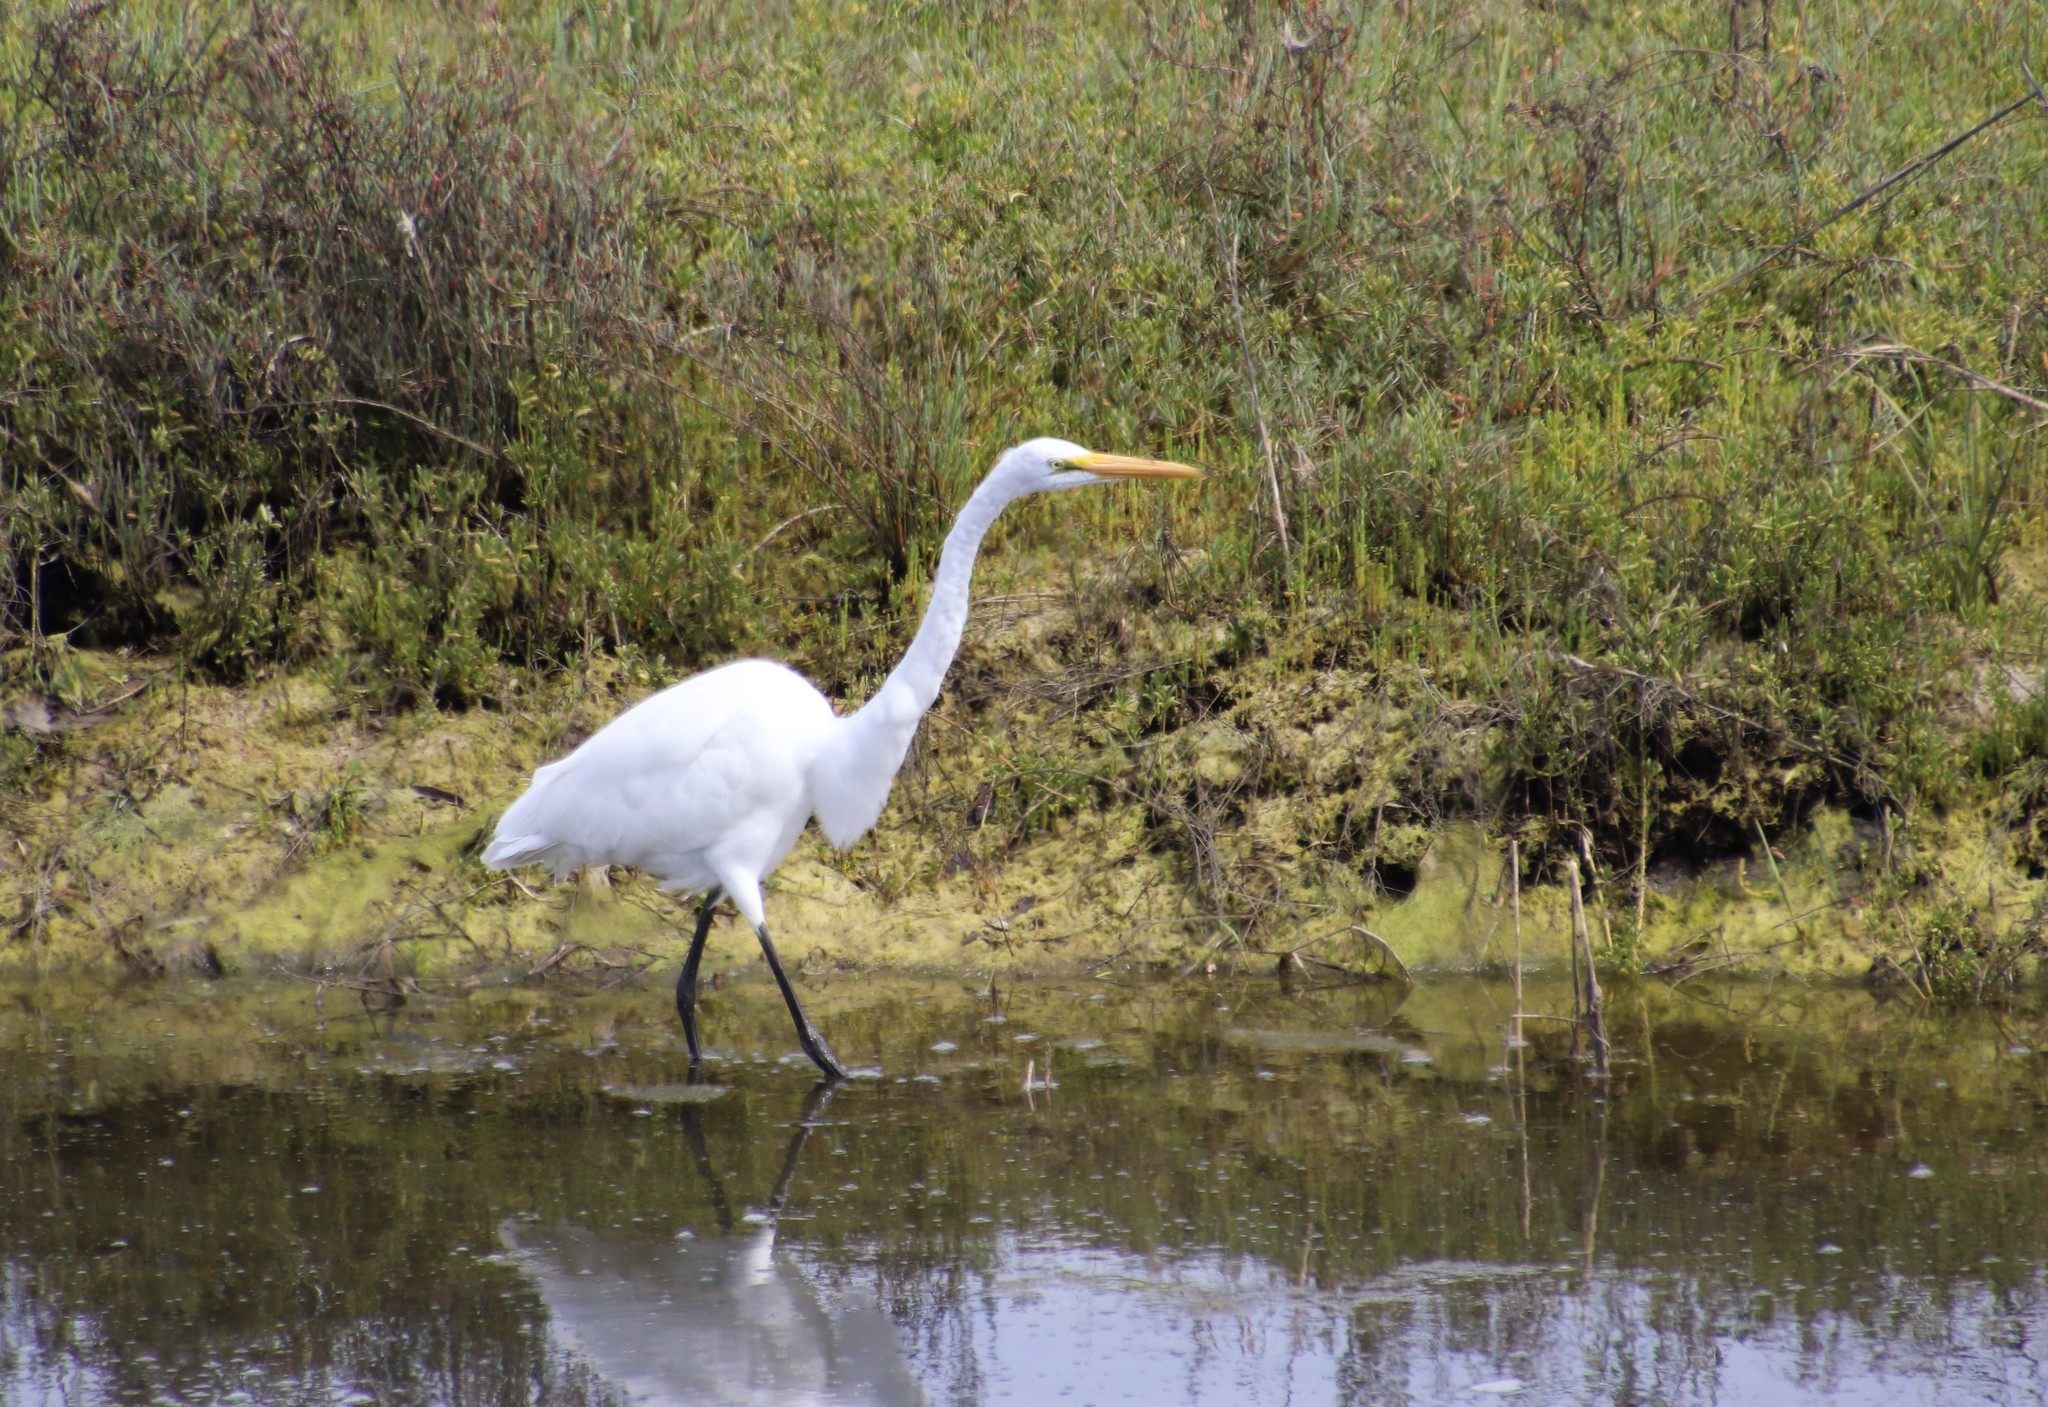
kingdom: Animalia
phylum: Chordata
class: Aves
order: Pelecaniformes
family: Ardeidae
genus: Ardea
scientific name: Ardea alba
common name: Great egret
